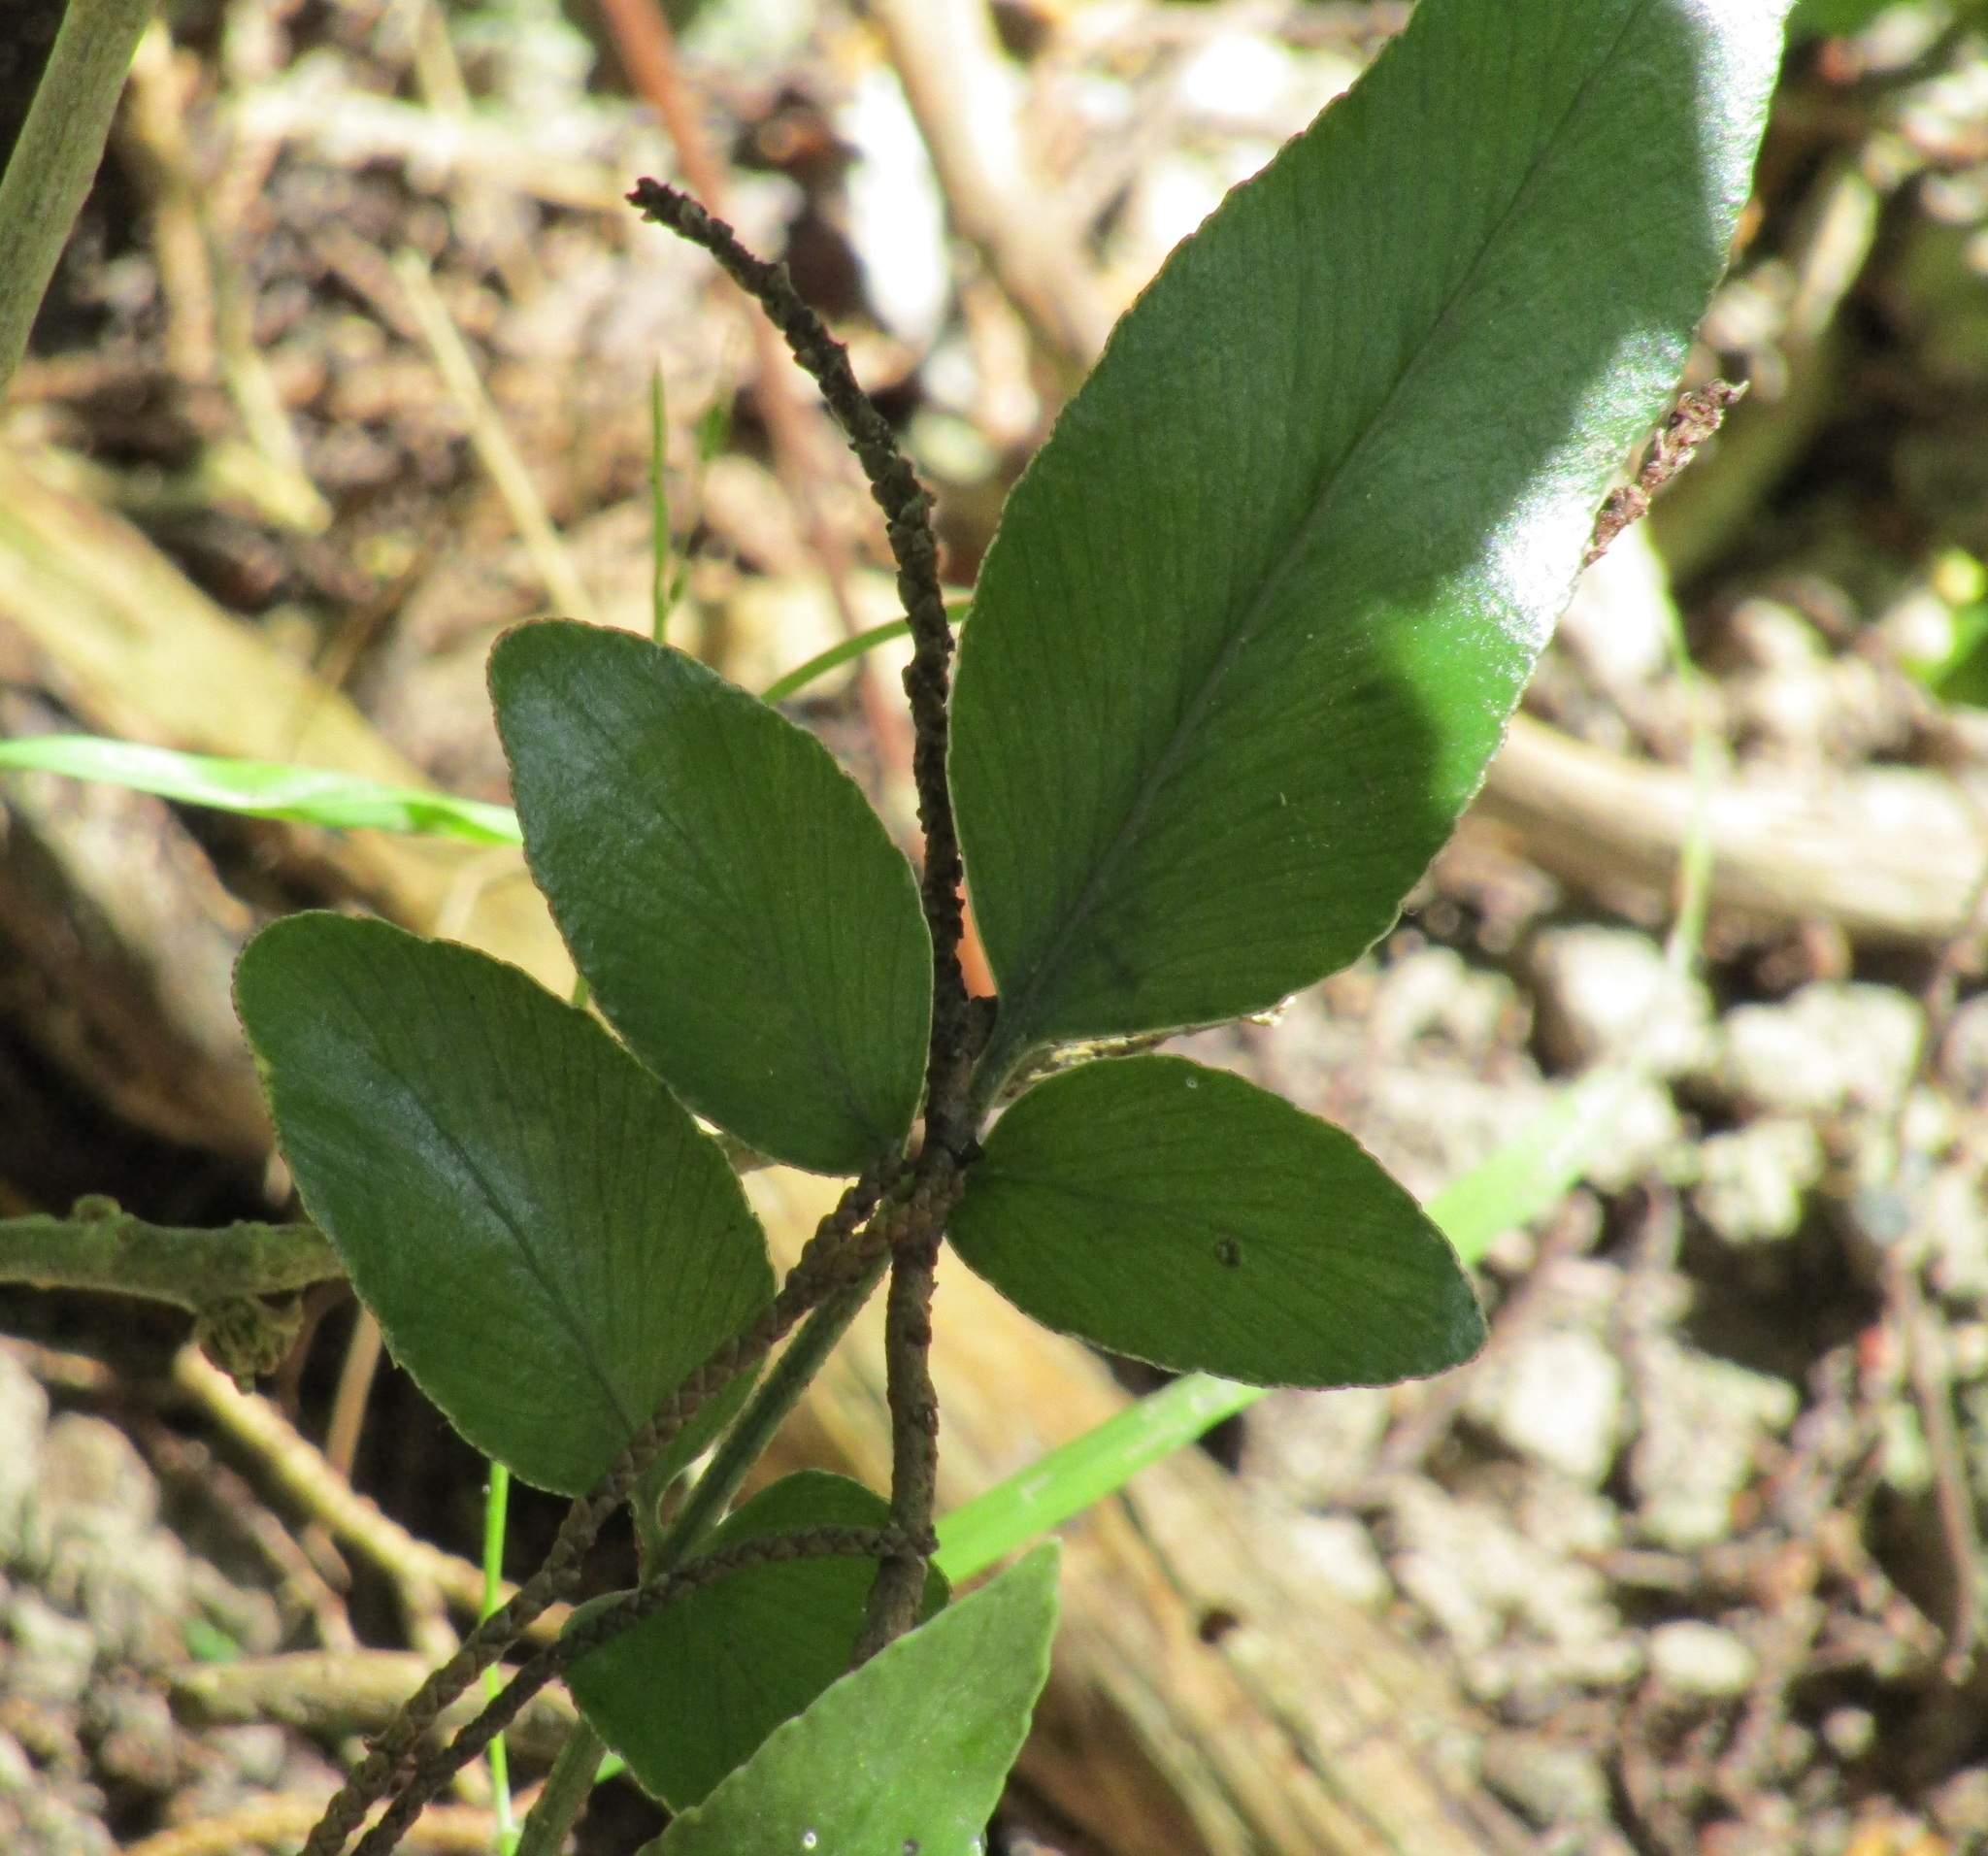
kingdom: Plantae
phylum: Tracheophyta
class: Polypodiopsida
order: Polypodiales
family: Aspleniaceae
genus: Asplenium
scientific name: Asplenium oblongifolium
